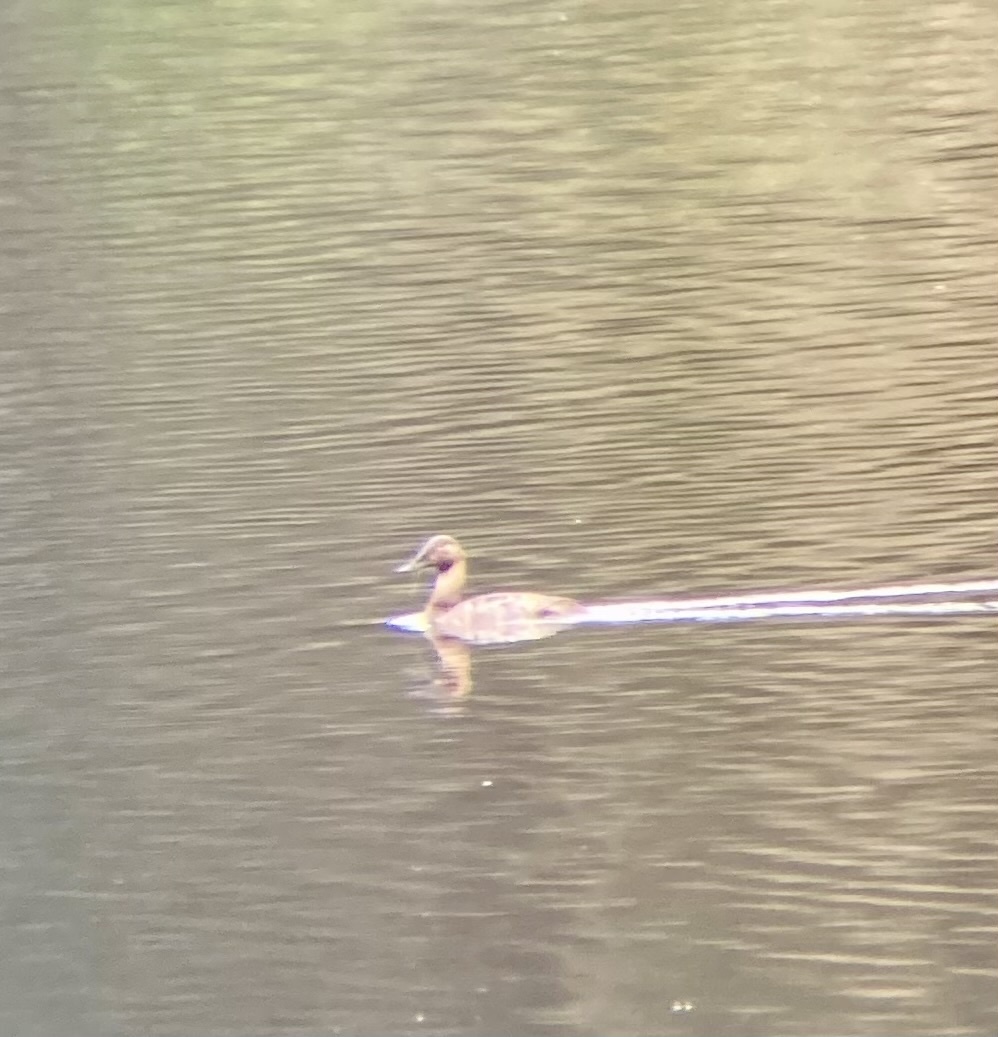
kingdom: Animalia
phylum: Chordata
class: Aves
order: Anseriformes
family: Anatidae
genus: Aythya
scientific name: Aythya valisineria
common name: Canvasback
